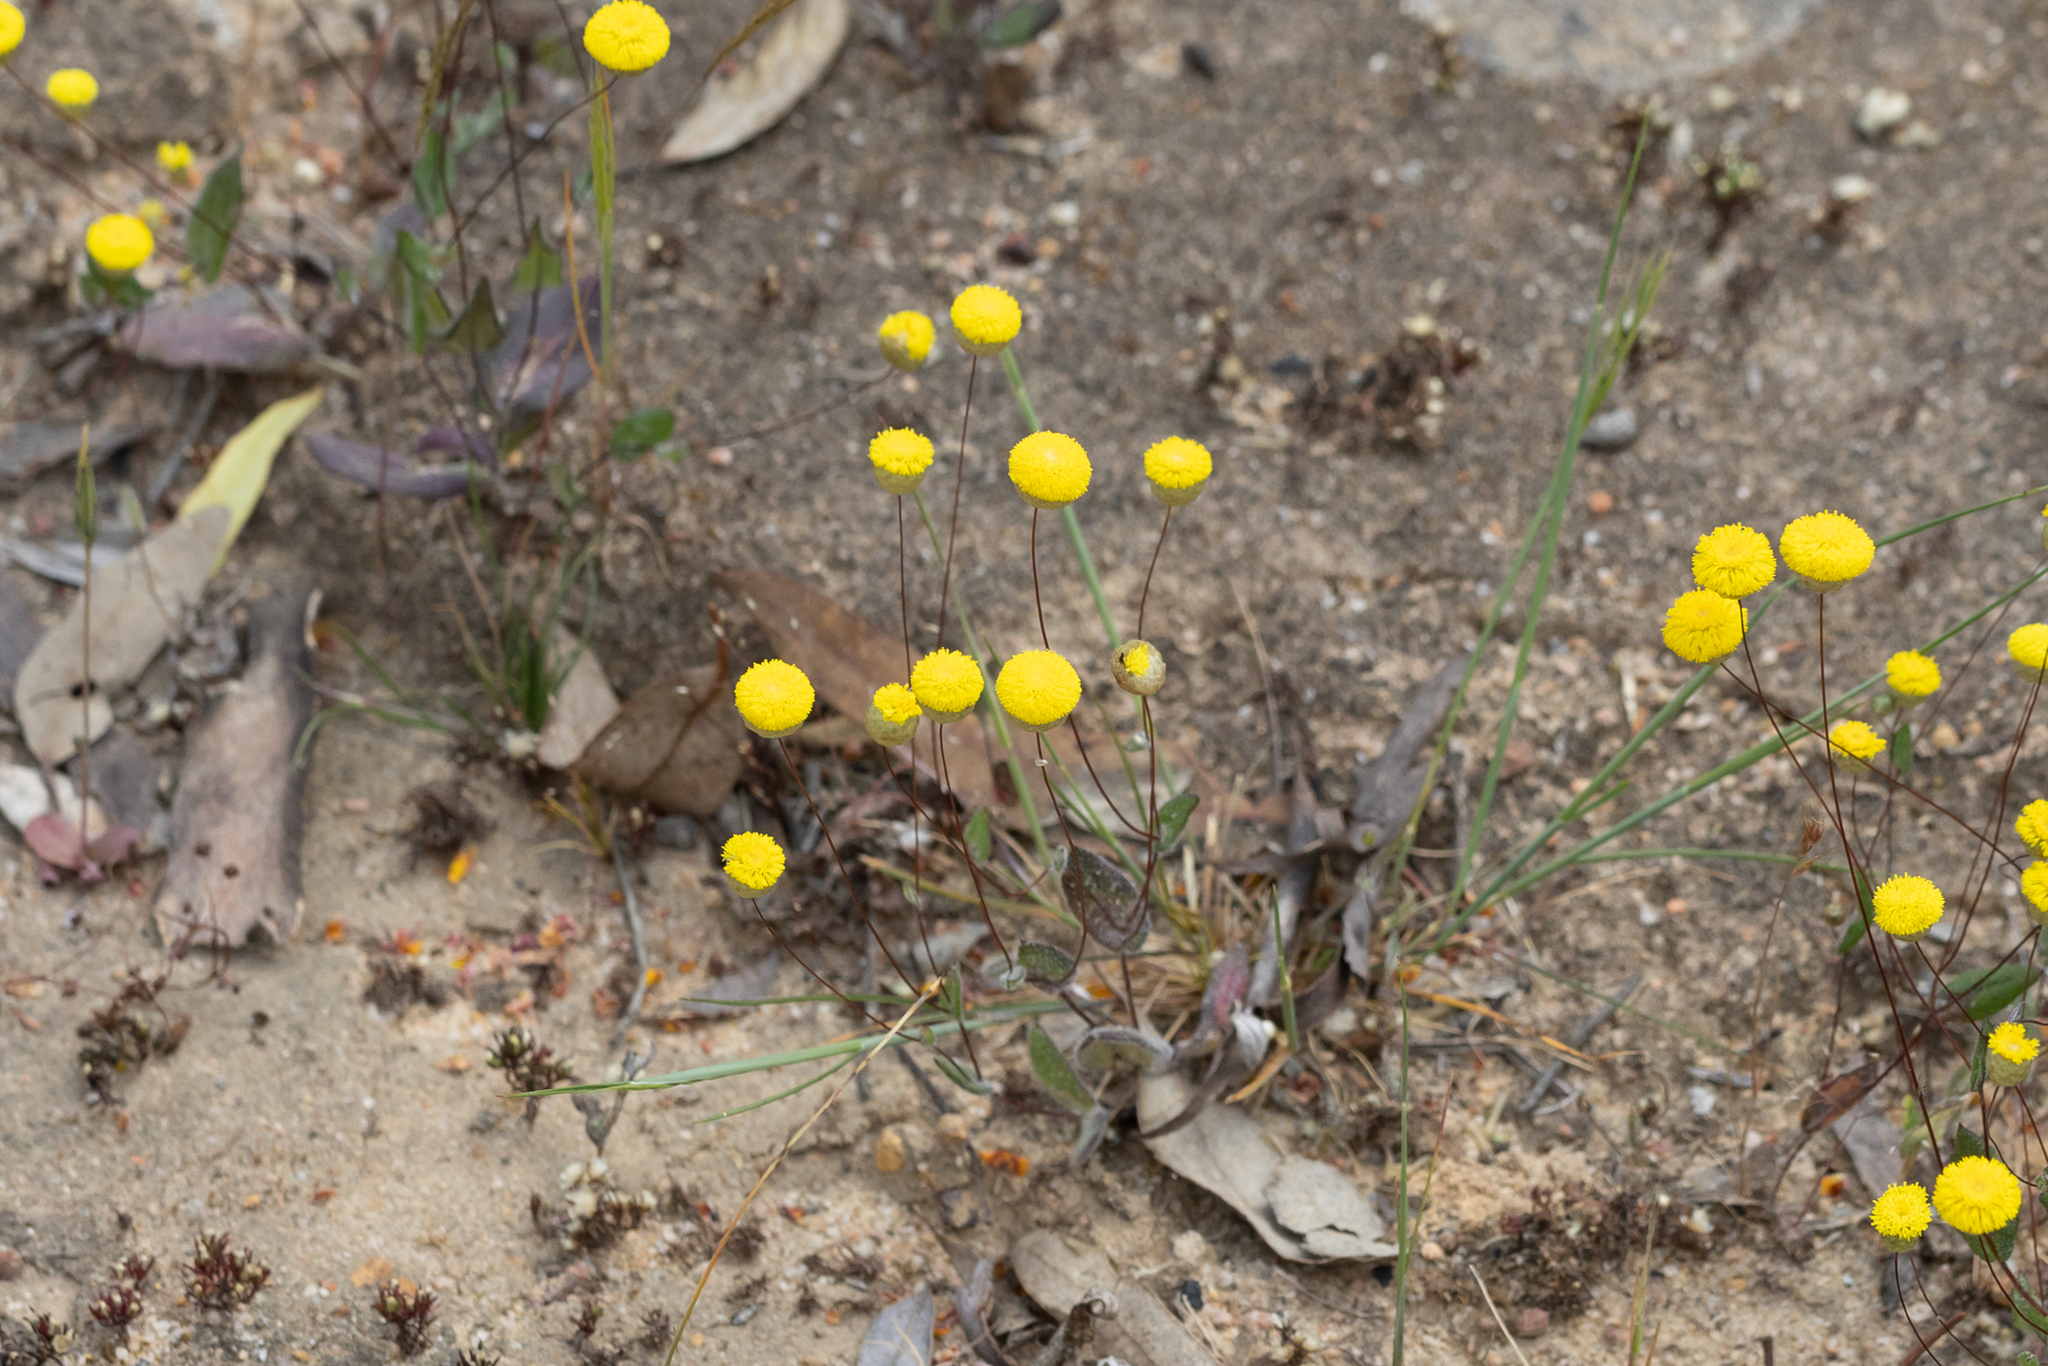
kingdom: Plantae
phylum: Tracheophyta
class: Magnoliopsida
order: Asterales
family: Asteraceae
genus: Panaetia
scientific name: Panaetia lessonii
